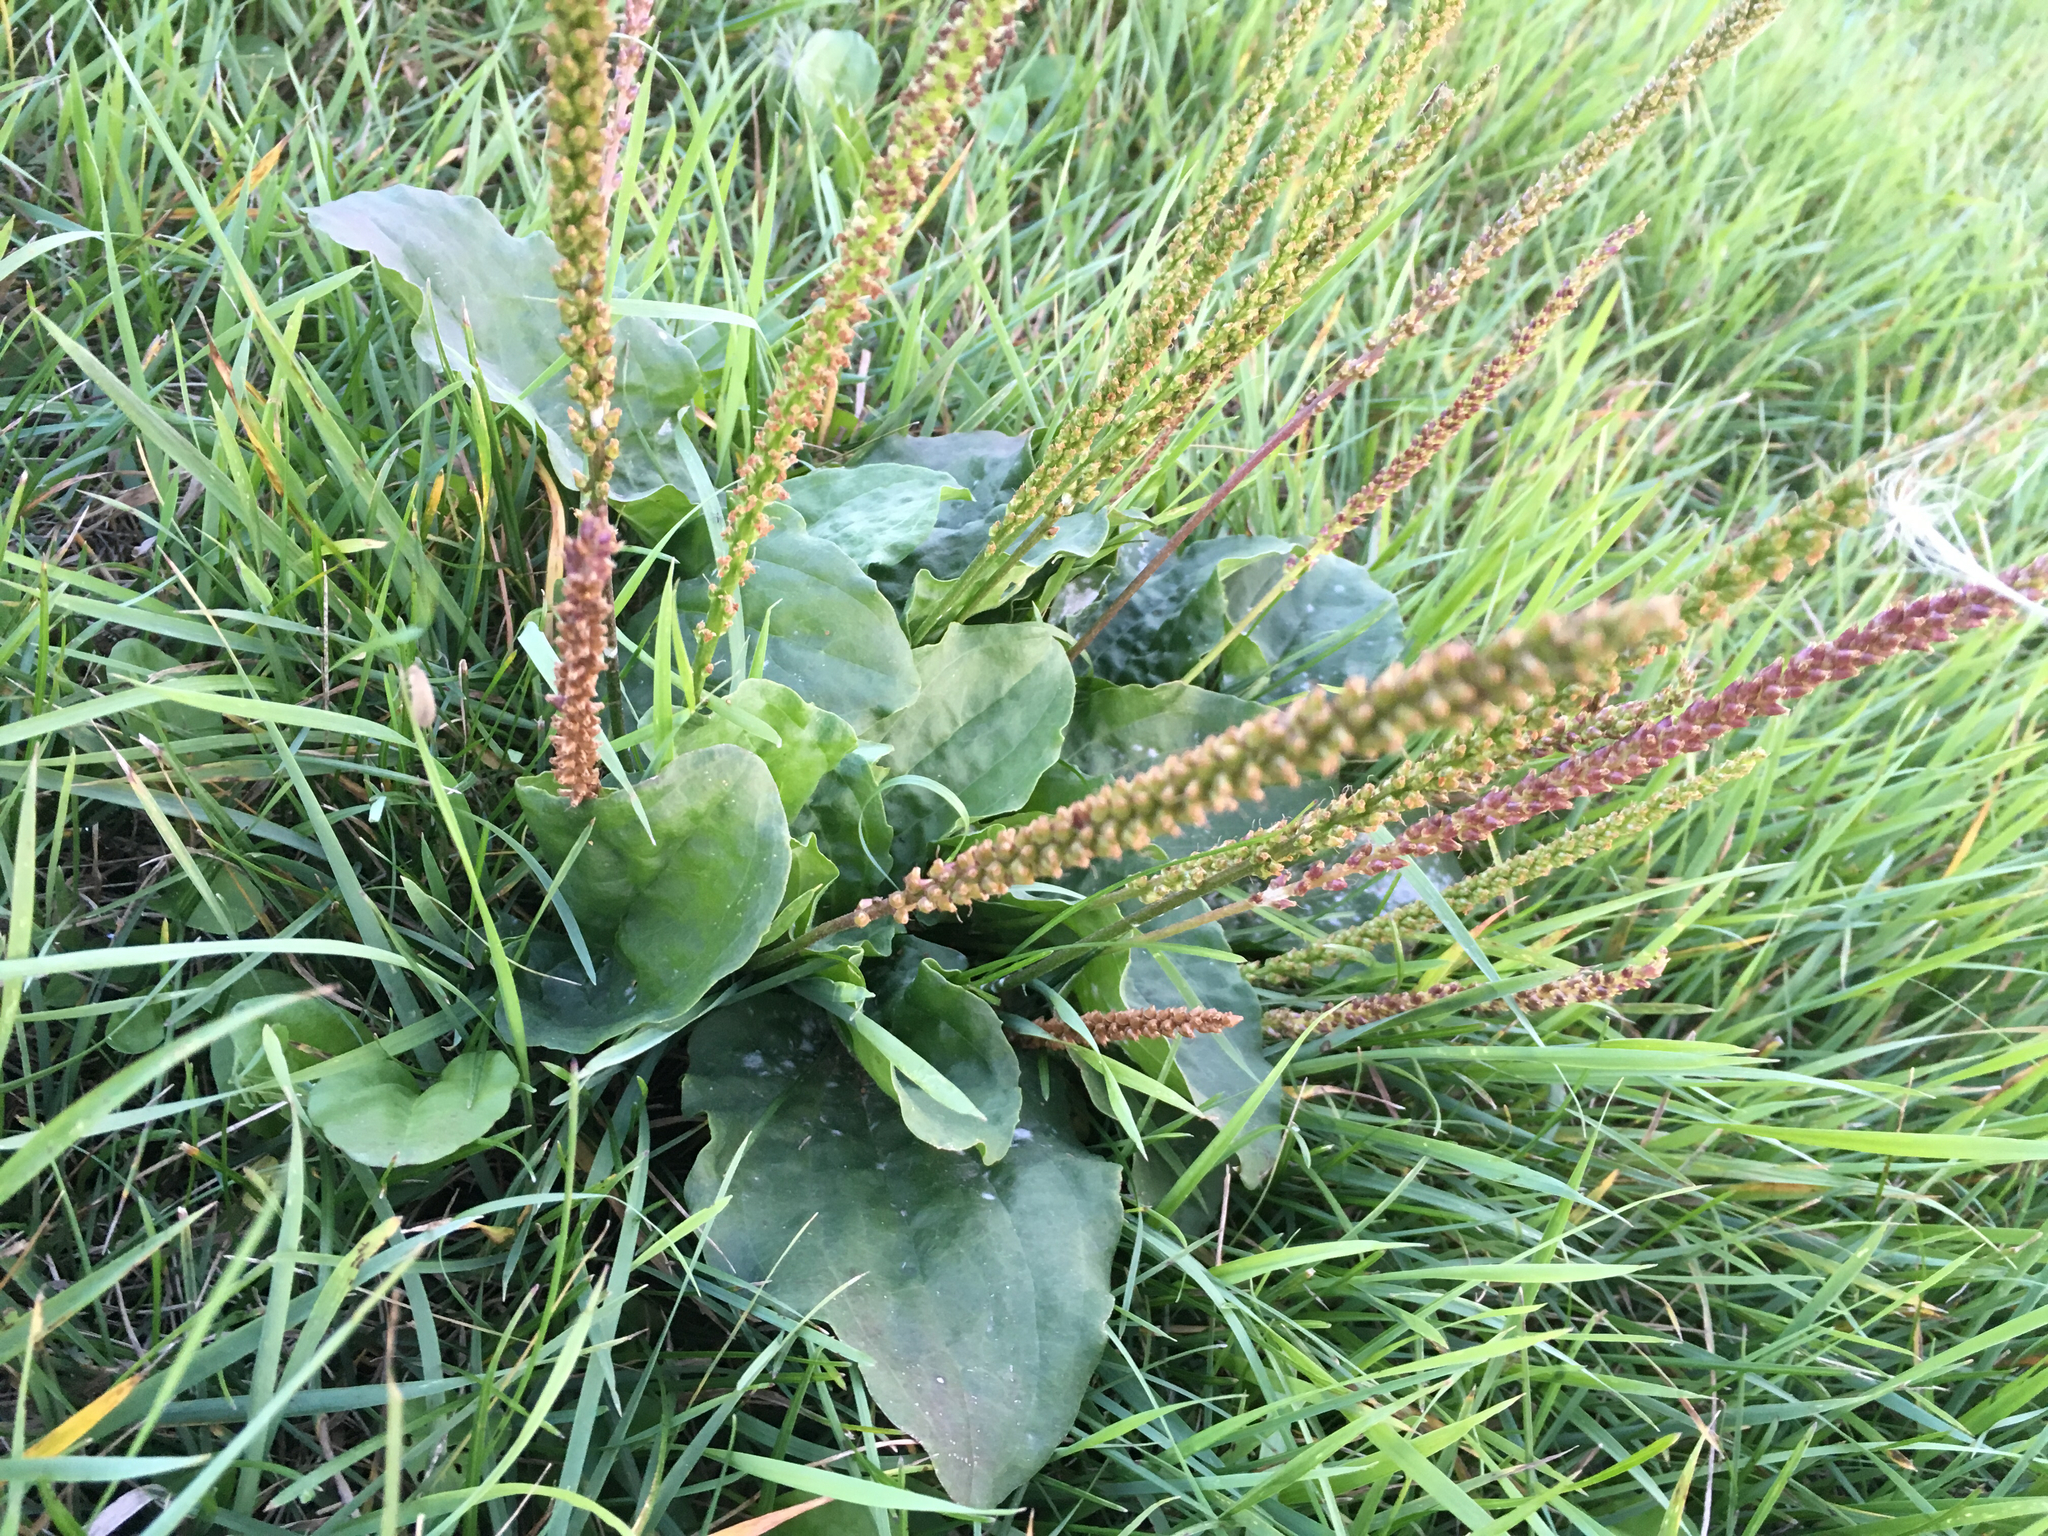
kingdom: Plantae
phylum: Tracheophyta
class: Magnoliopsida
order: Lamiales
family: Plantaginaceae
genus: Plantago
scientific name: Plantago major
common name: Common plantain
